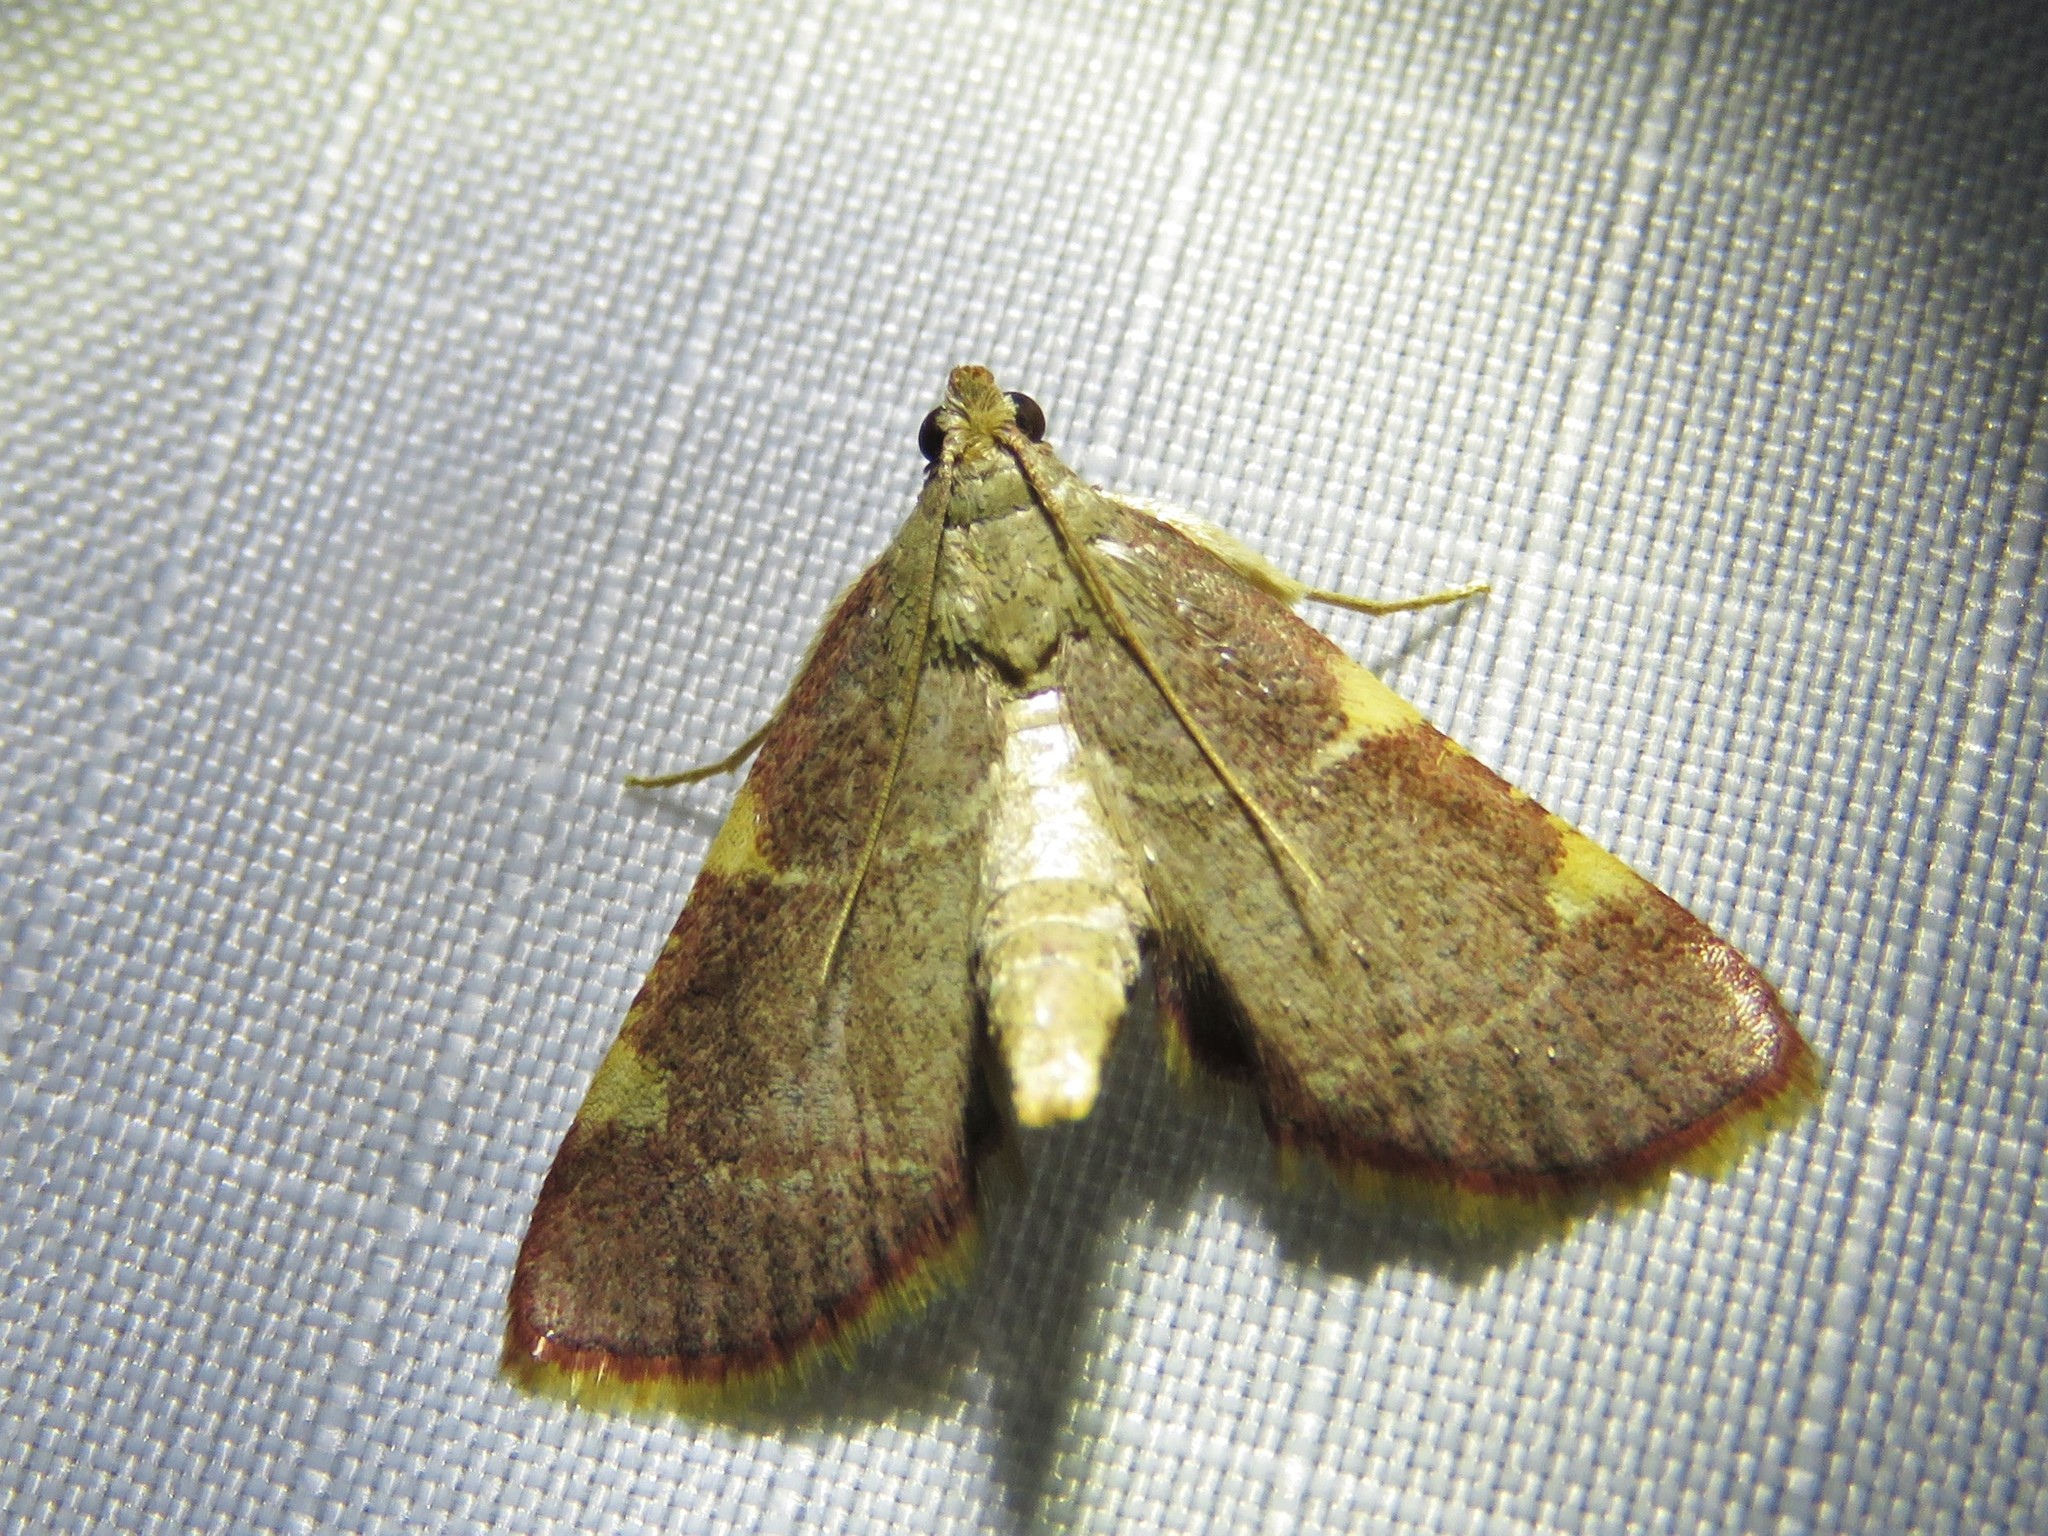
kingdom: Animalia
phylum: Arthropoda
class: Insecta
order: Lepidoptera
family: Pyralidae
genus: Hypsopygia
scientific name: Hypsopygia olinalis
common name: Yellow-fringed dolichomia moth
